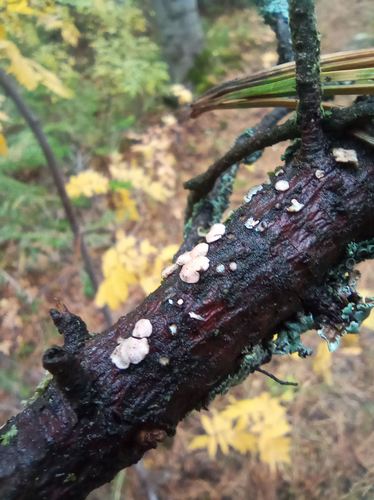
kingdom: Fungi
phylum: Basidiomycota
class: Agaricomycetes
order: Russulales
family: Stereaceae
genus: Aleurodiscus
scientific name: Aleurodiscus amorphus
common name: Orange discus
